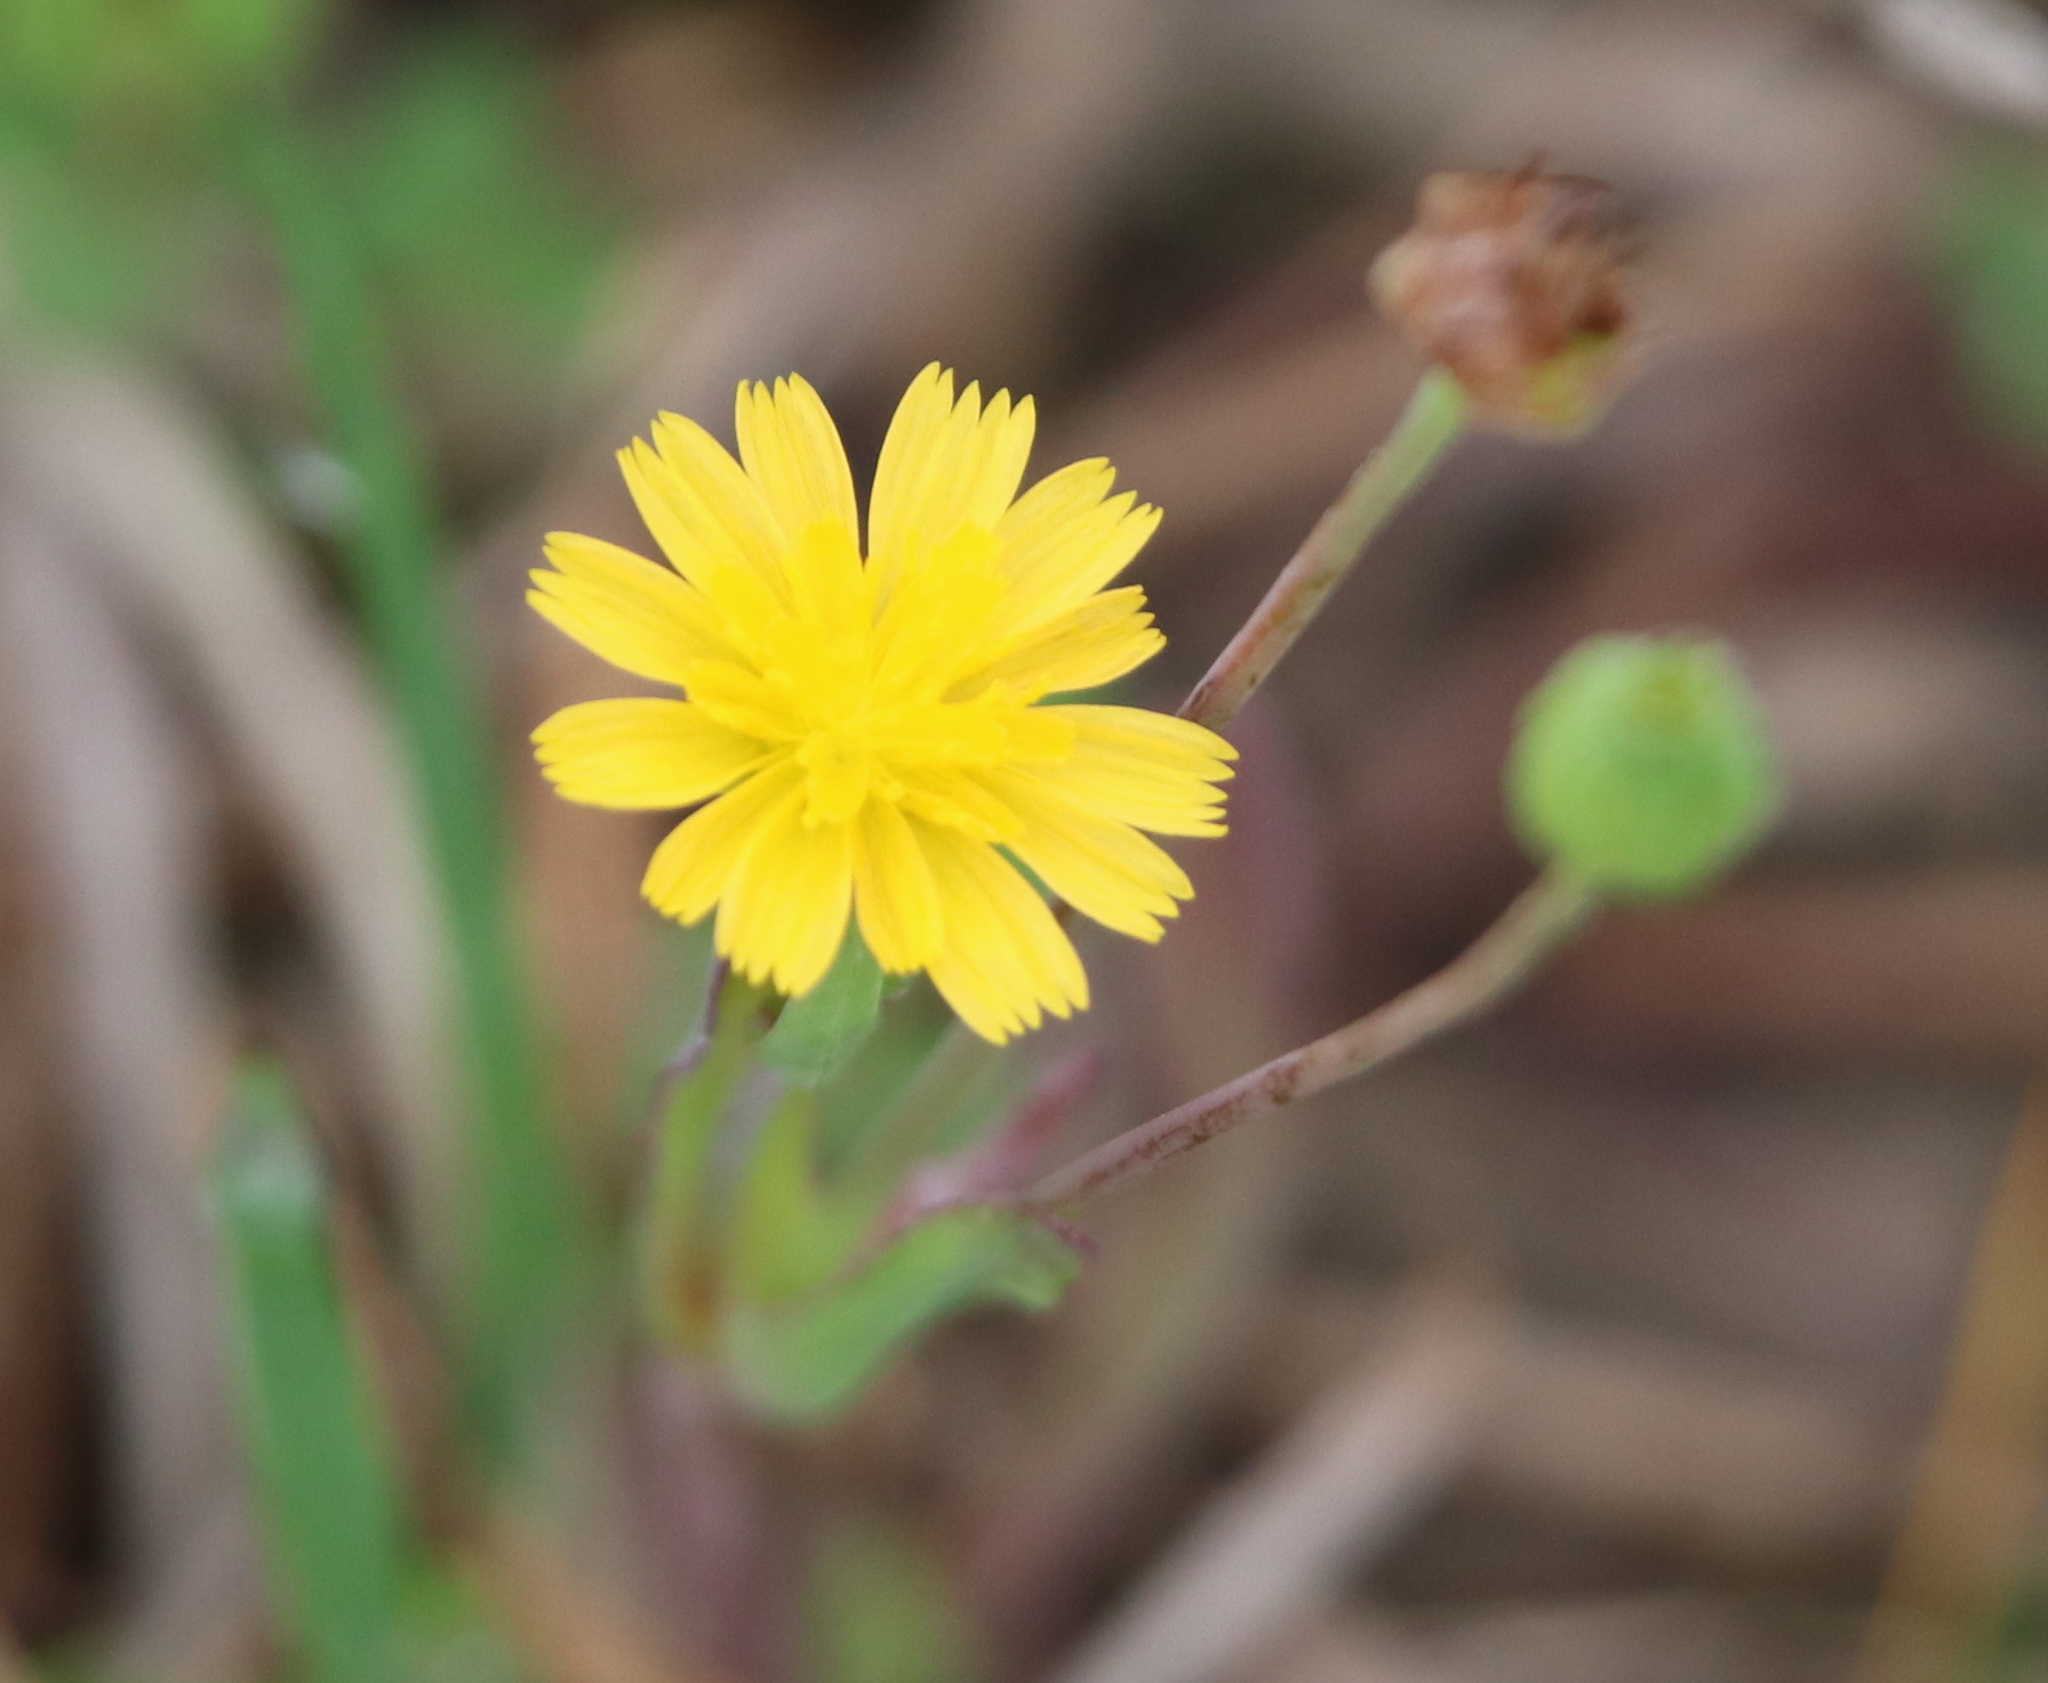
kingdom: Plantae
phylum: Tracheophyta
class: Magnoliopsida
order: Asterales
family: Asteraceae
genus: Krigia
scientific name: Krigia cespitosa
